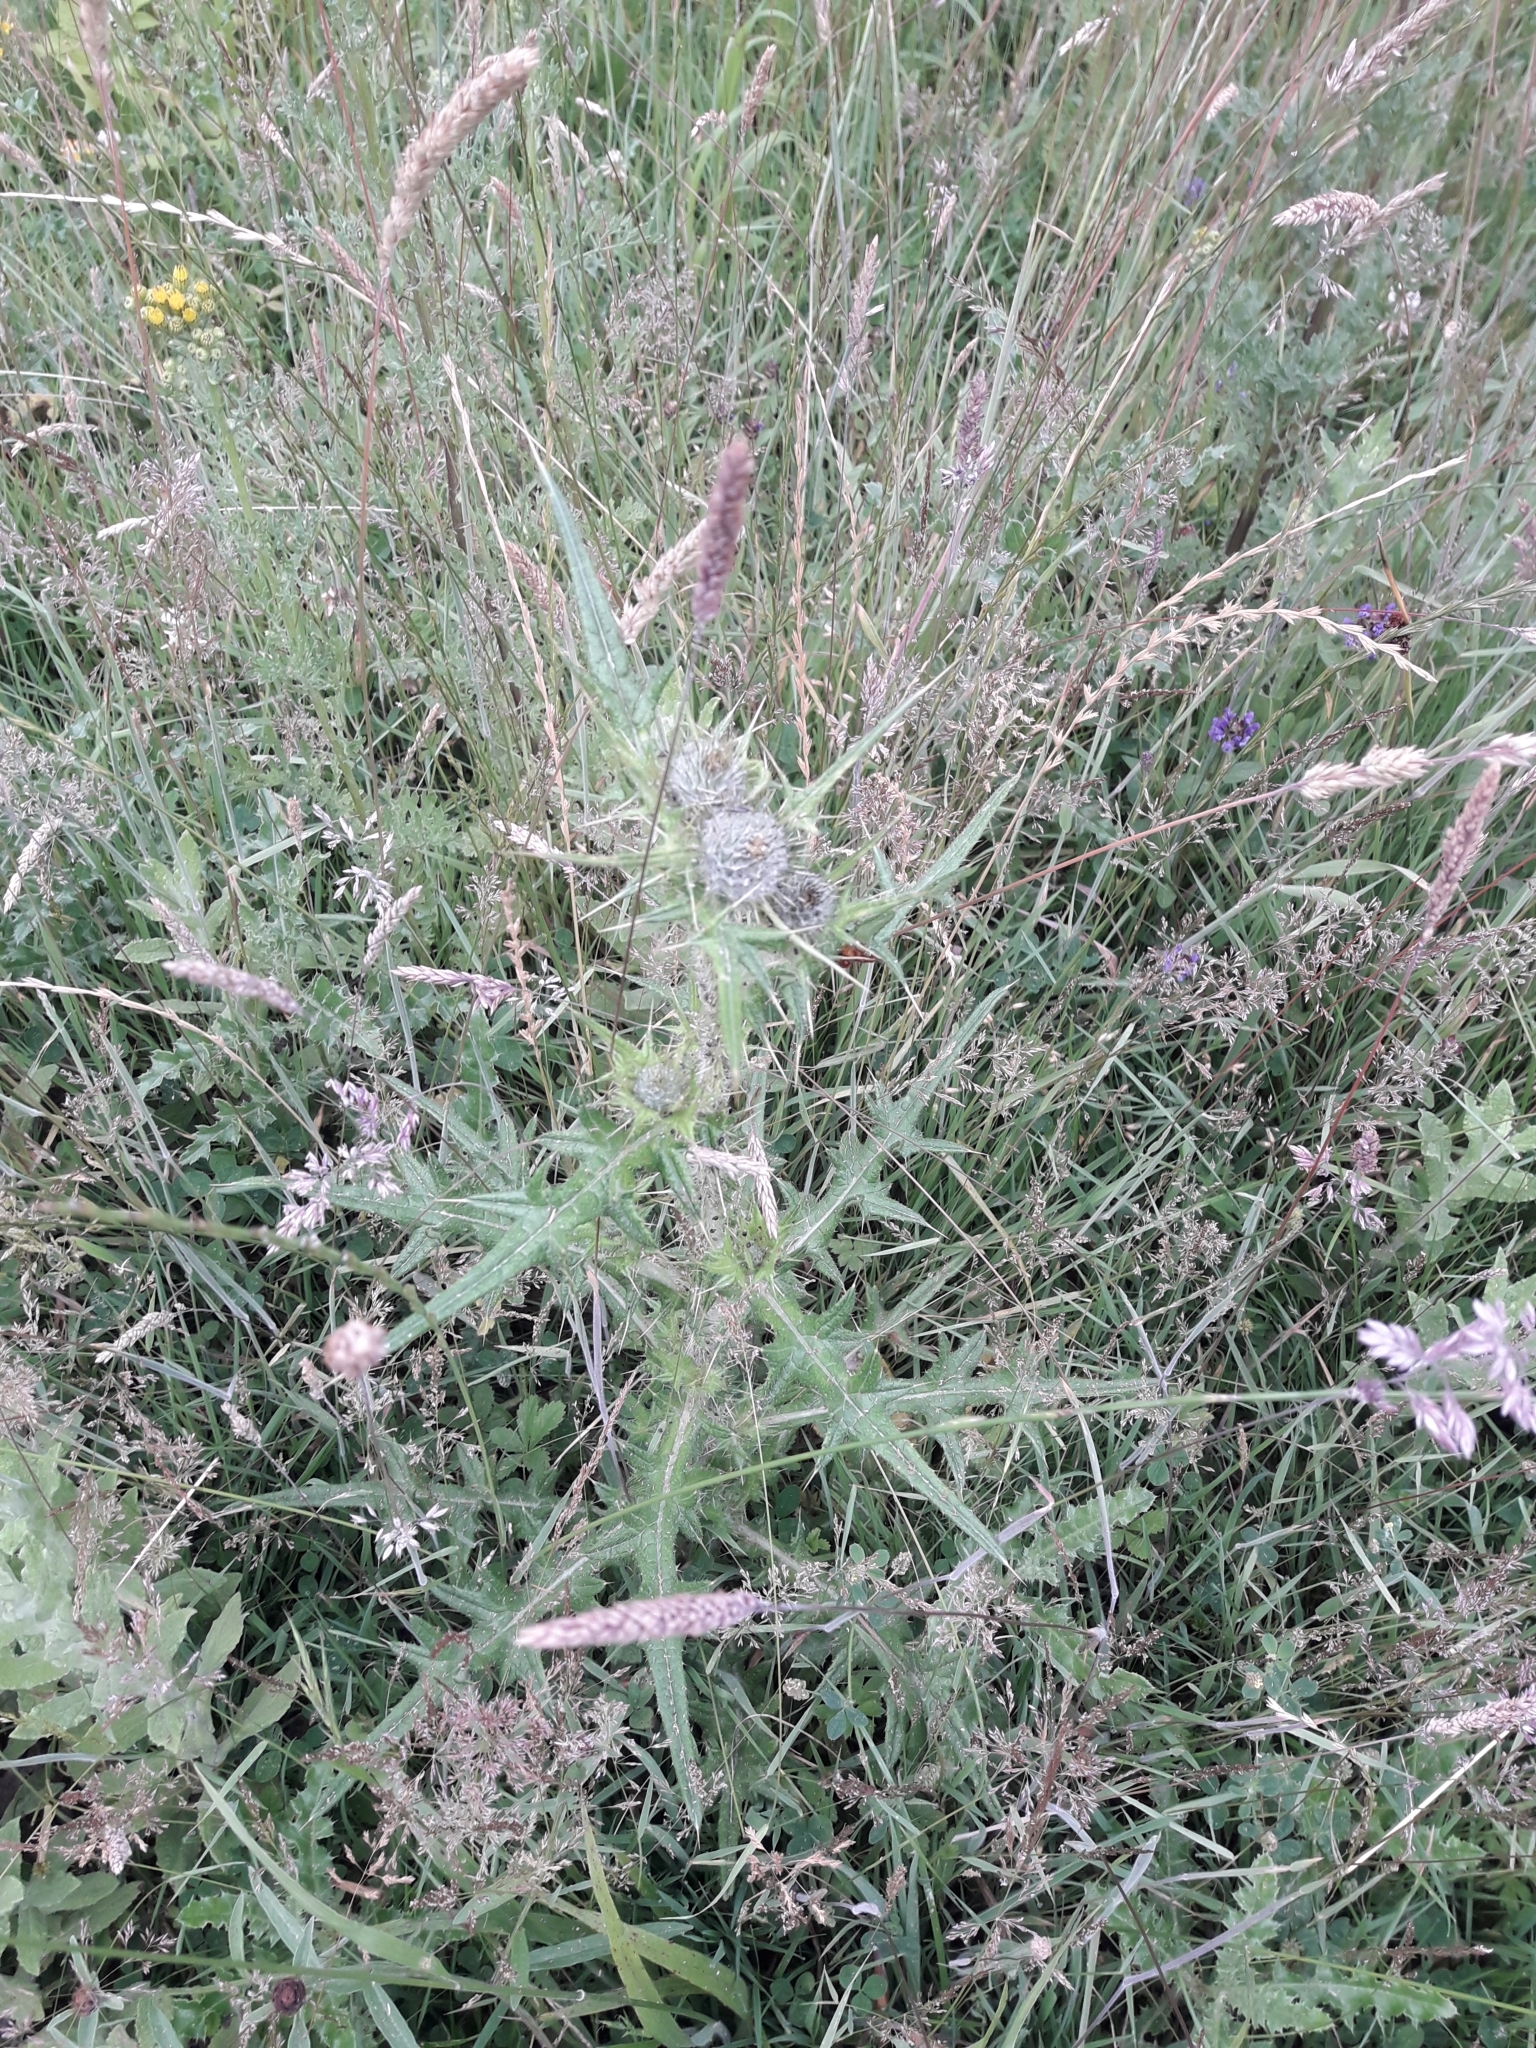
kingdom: Plantae
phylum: Tracheophyta
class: Magnoliopsida
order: Asterales
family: Asteraceae
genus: Cirsium
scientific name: Cirsium vulgare
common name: Bull thistle
